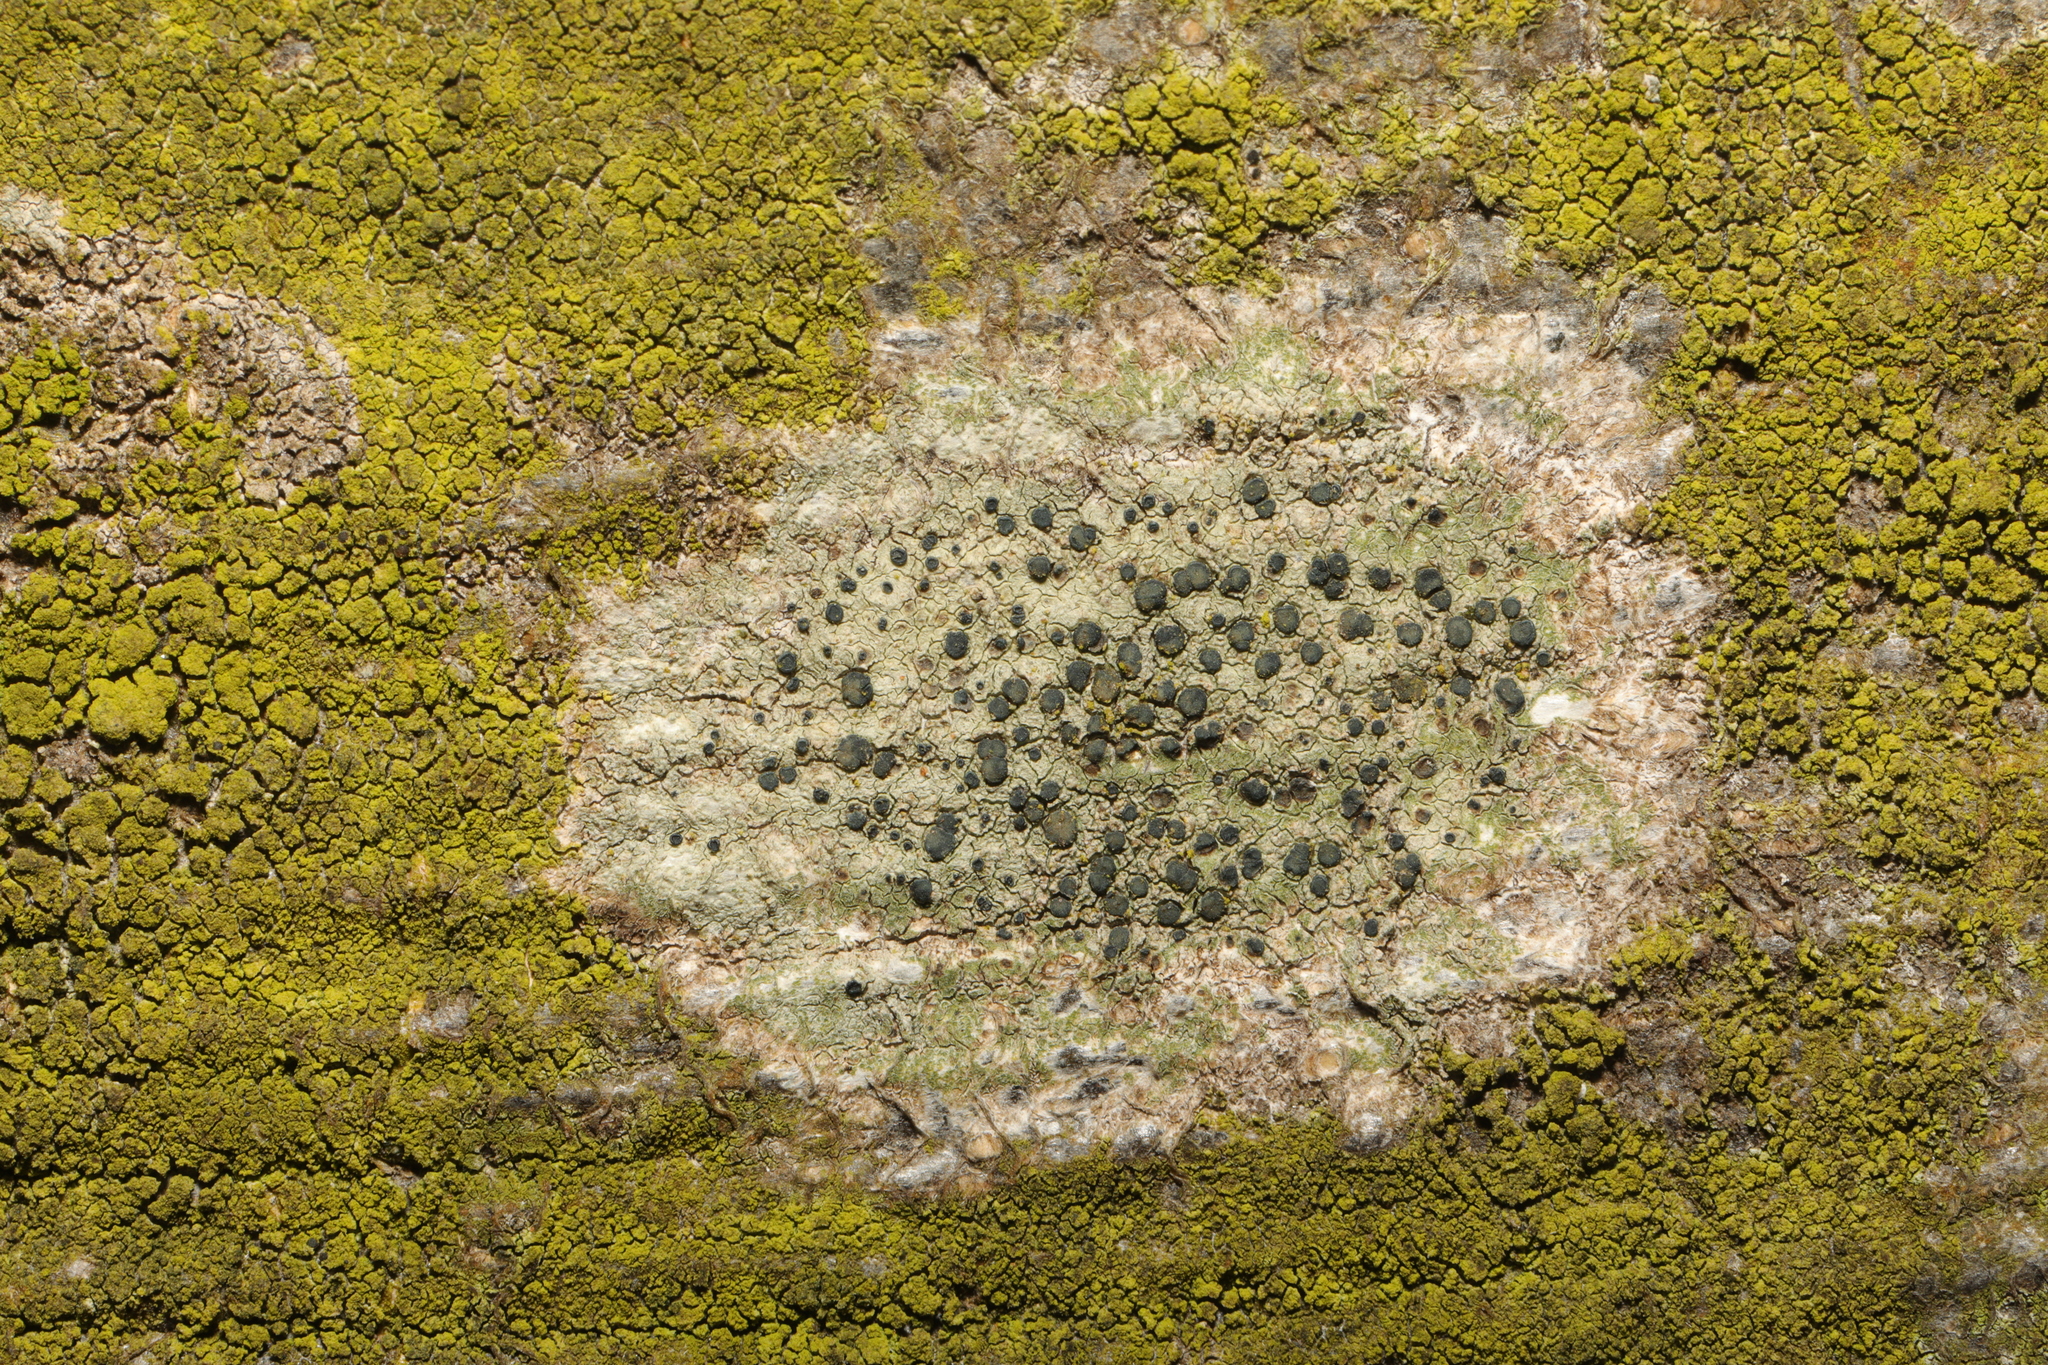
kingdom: Fungi
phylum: Ascomycota
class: Lecanoromycetes
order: Lecanorales
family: Lecanoraceae
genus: Lecidella
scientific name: Lecidella elaeochroma
